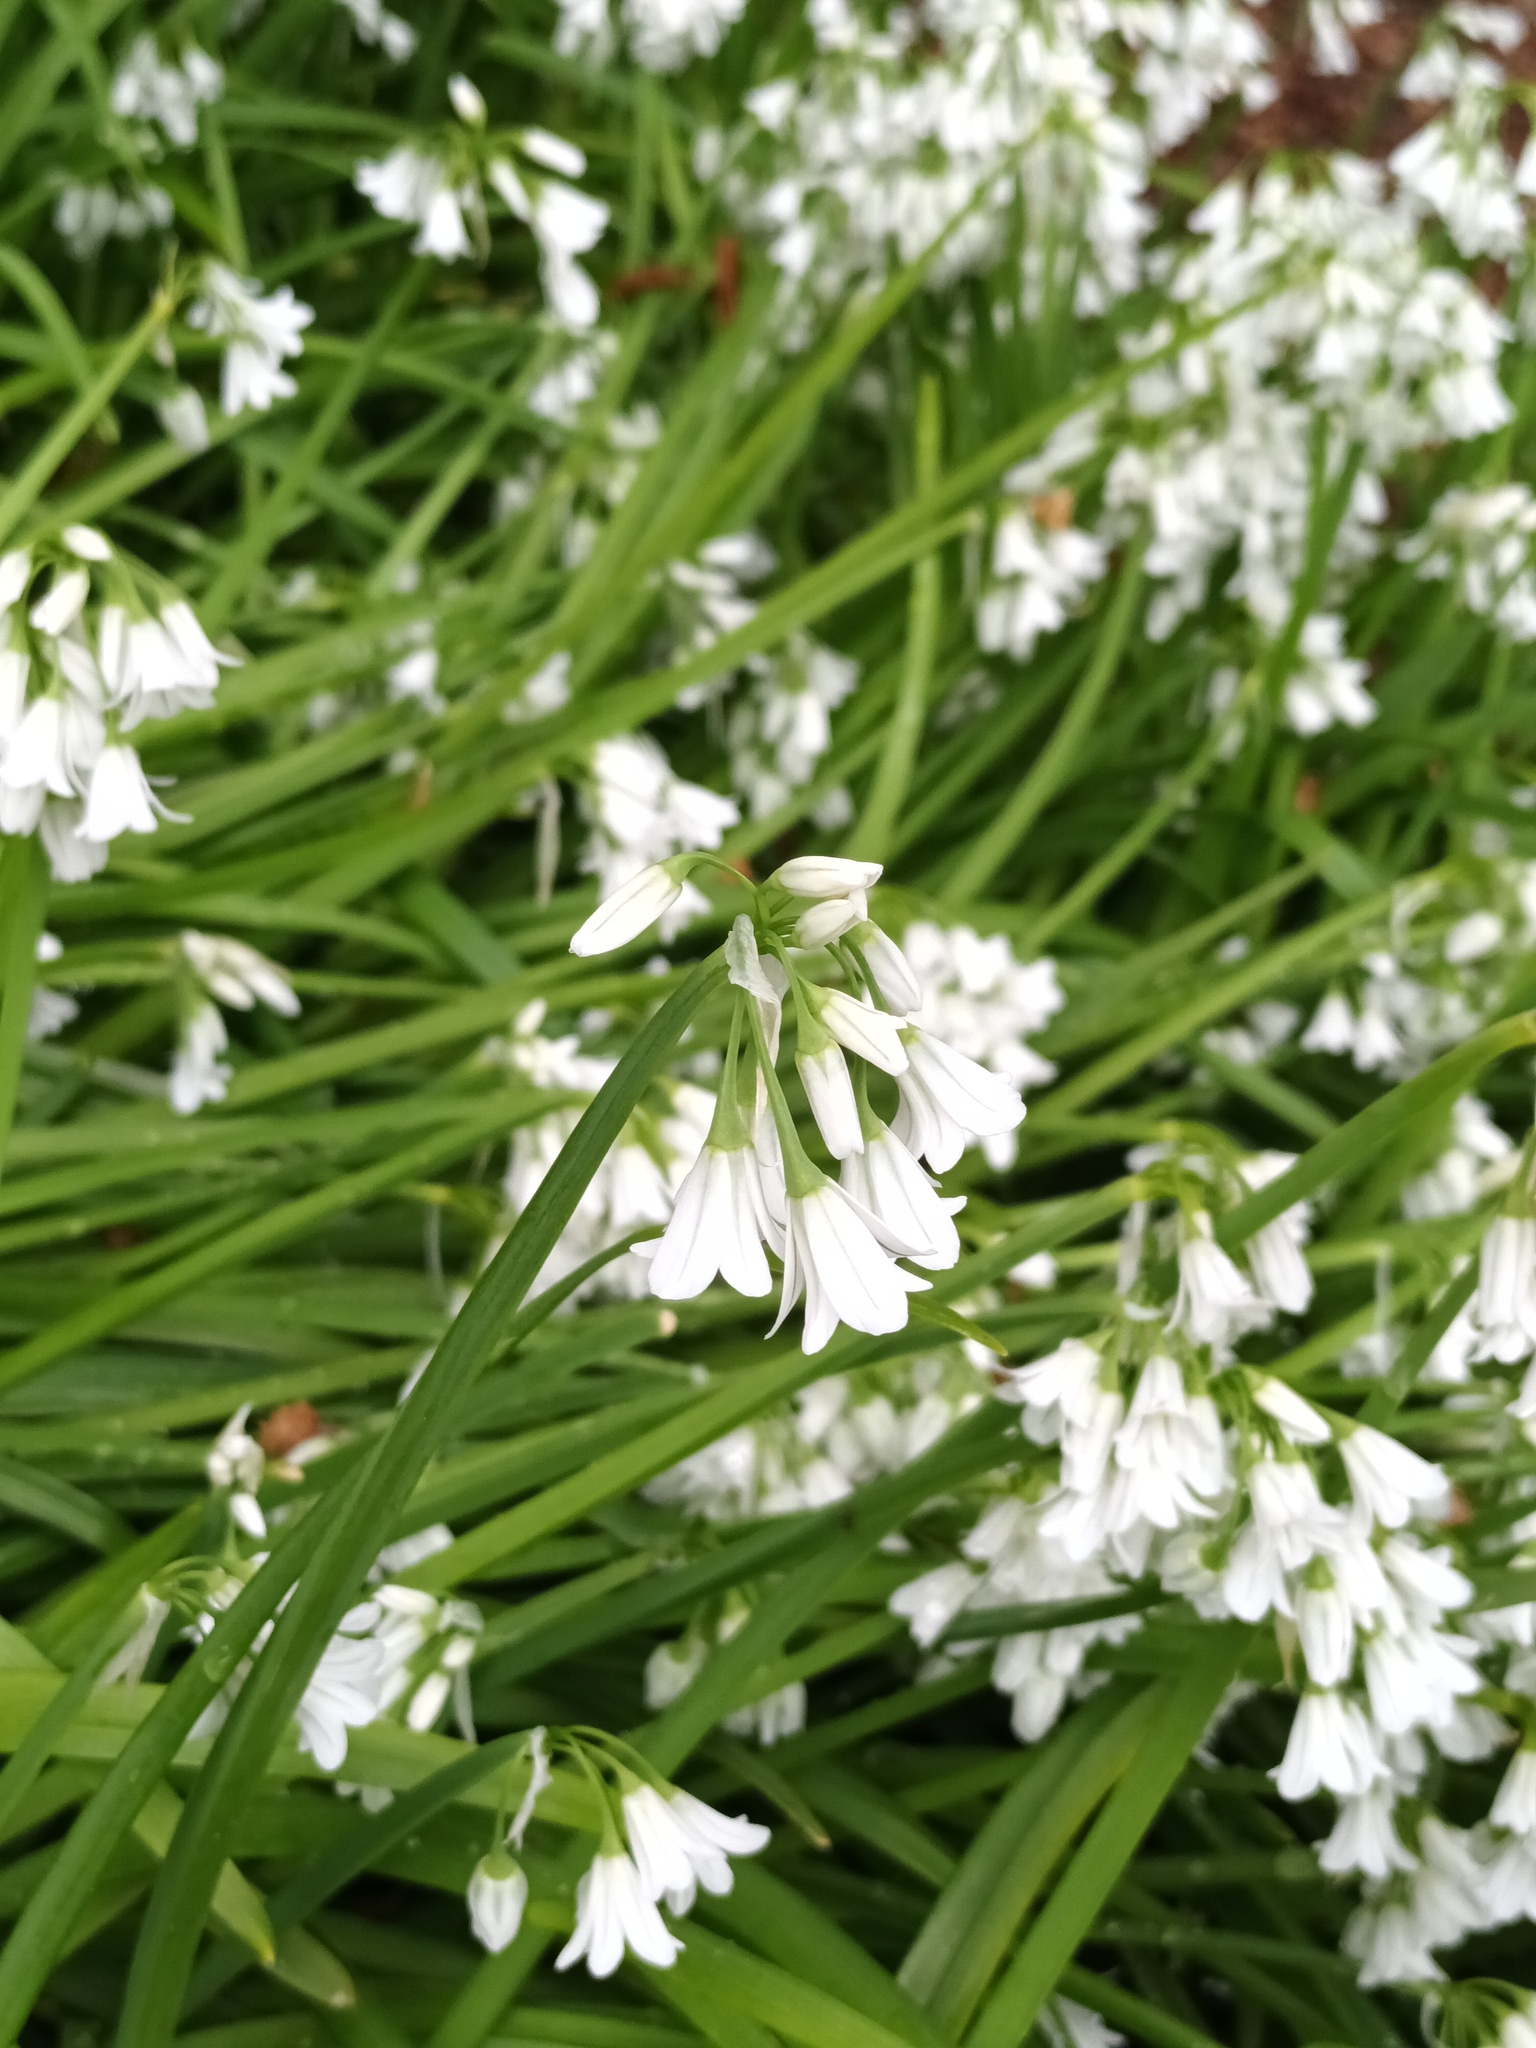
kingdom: Plantae
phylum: Tracheophyta
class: Liliopsida
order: Asparagales
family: Amaryllidaceae
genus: Allium
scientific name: Allium triquetrum
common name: Three-cornered garlic
